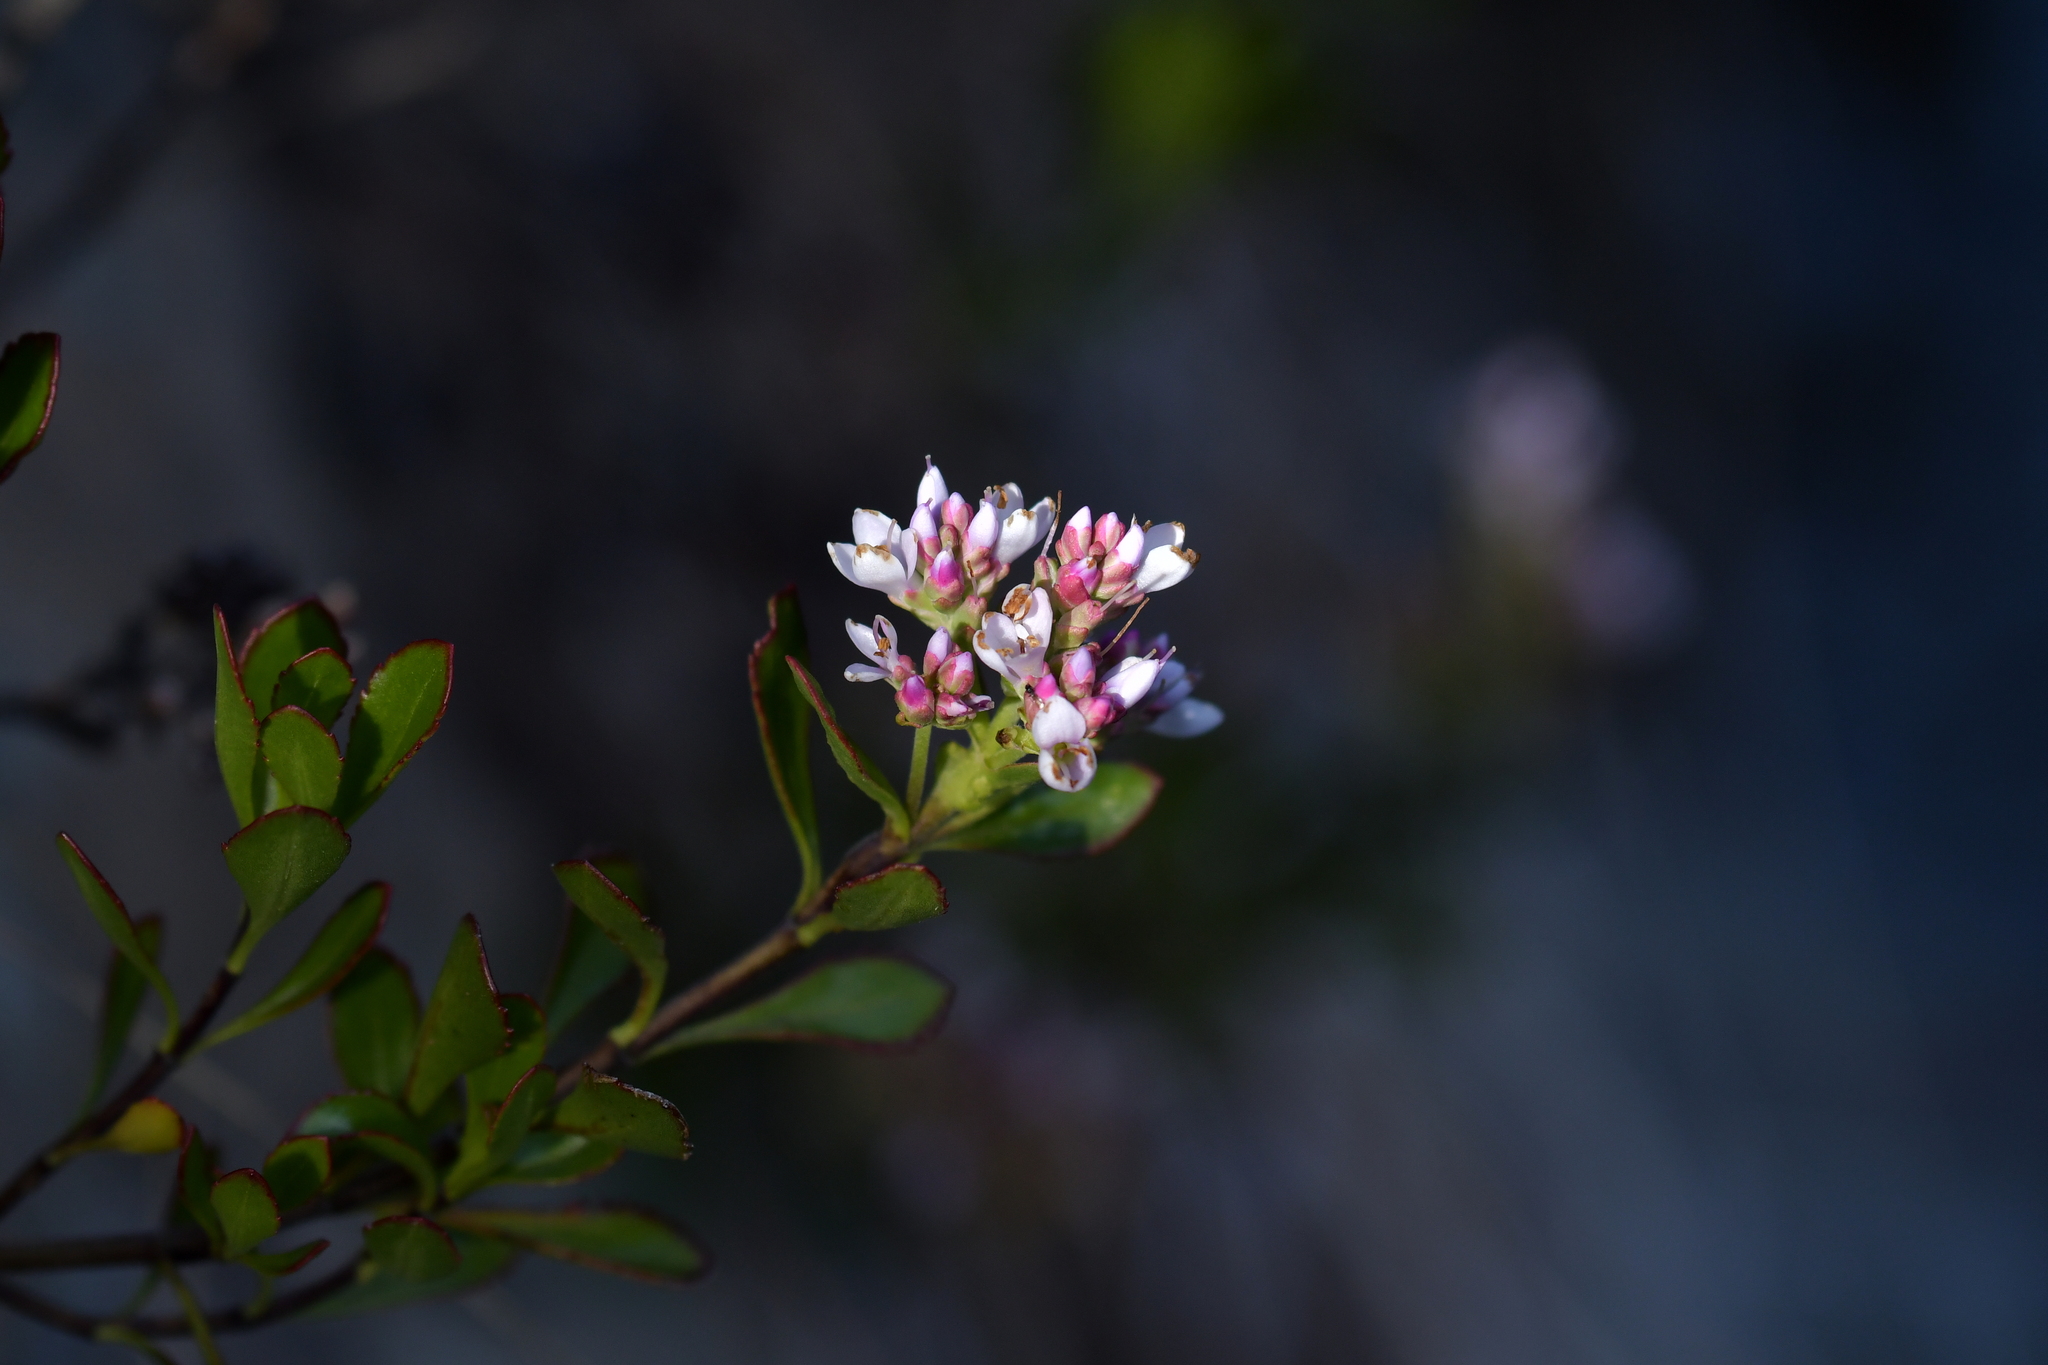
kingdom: Plantae
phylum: Tracheophyta
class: Magnoliopsida
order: Lamiales
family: Plantaginaceae
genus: Veronica
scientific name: Veronica raoulii
